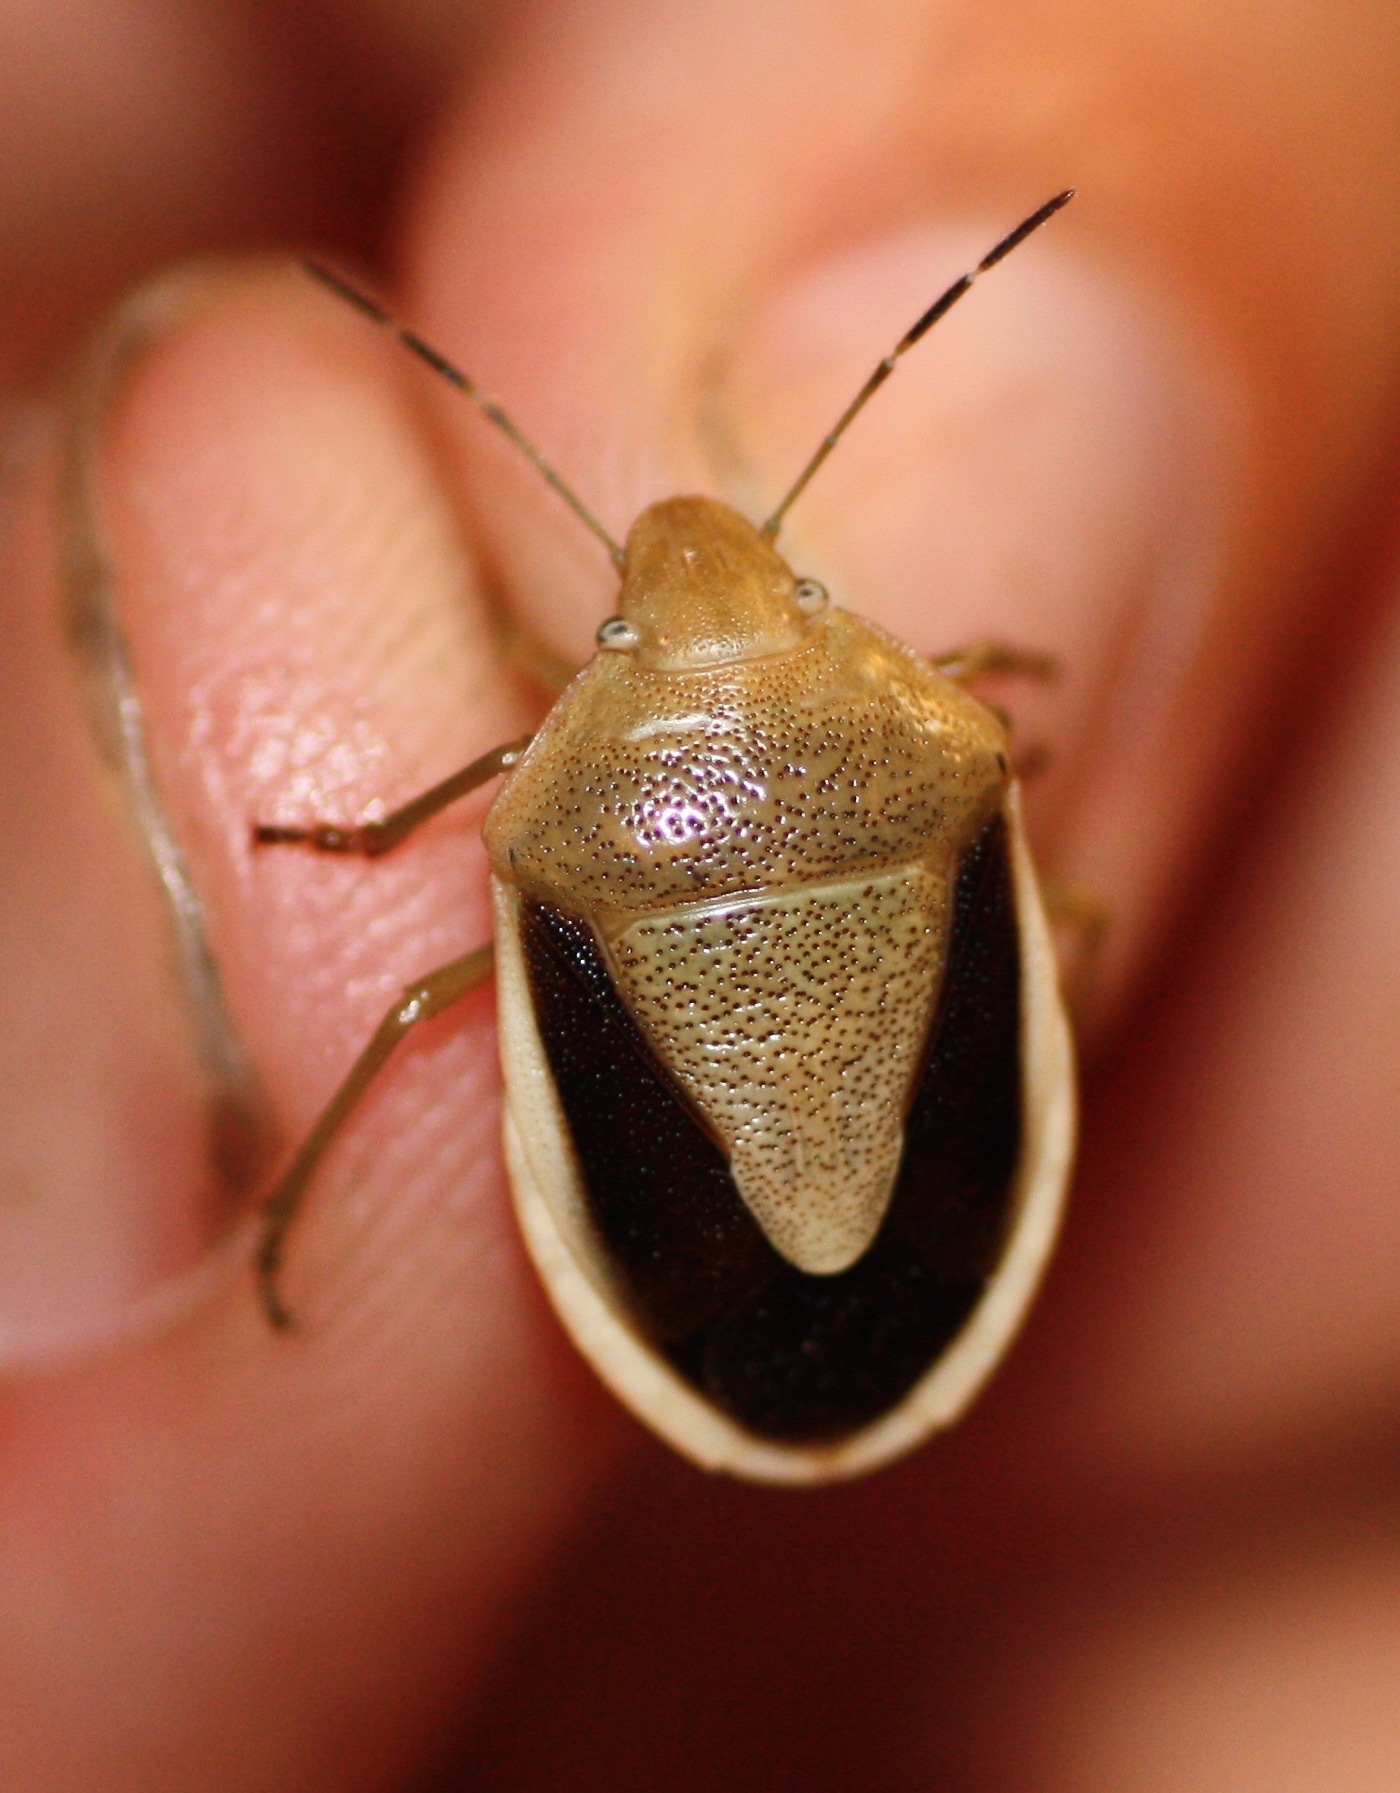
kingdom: Animalia
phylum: Arthropoda
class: Insecta
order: Hemiptera
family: Pentatomidae
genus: Chlorochroa
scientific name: Chlorochroa osborni
